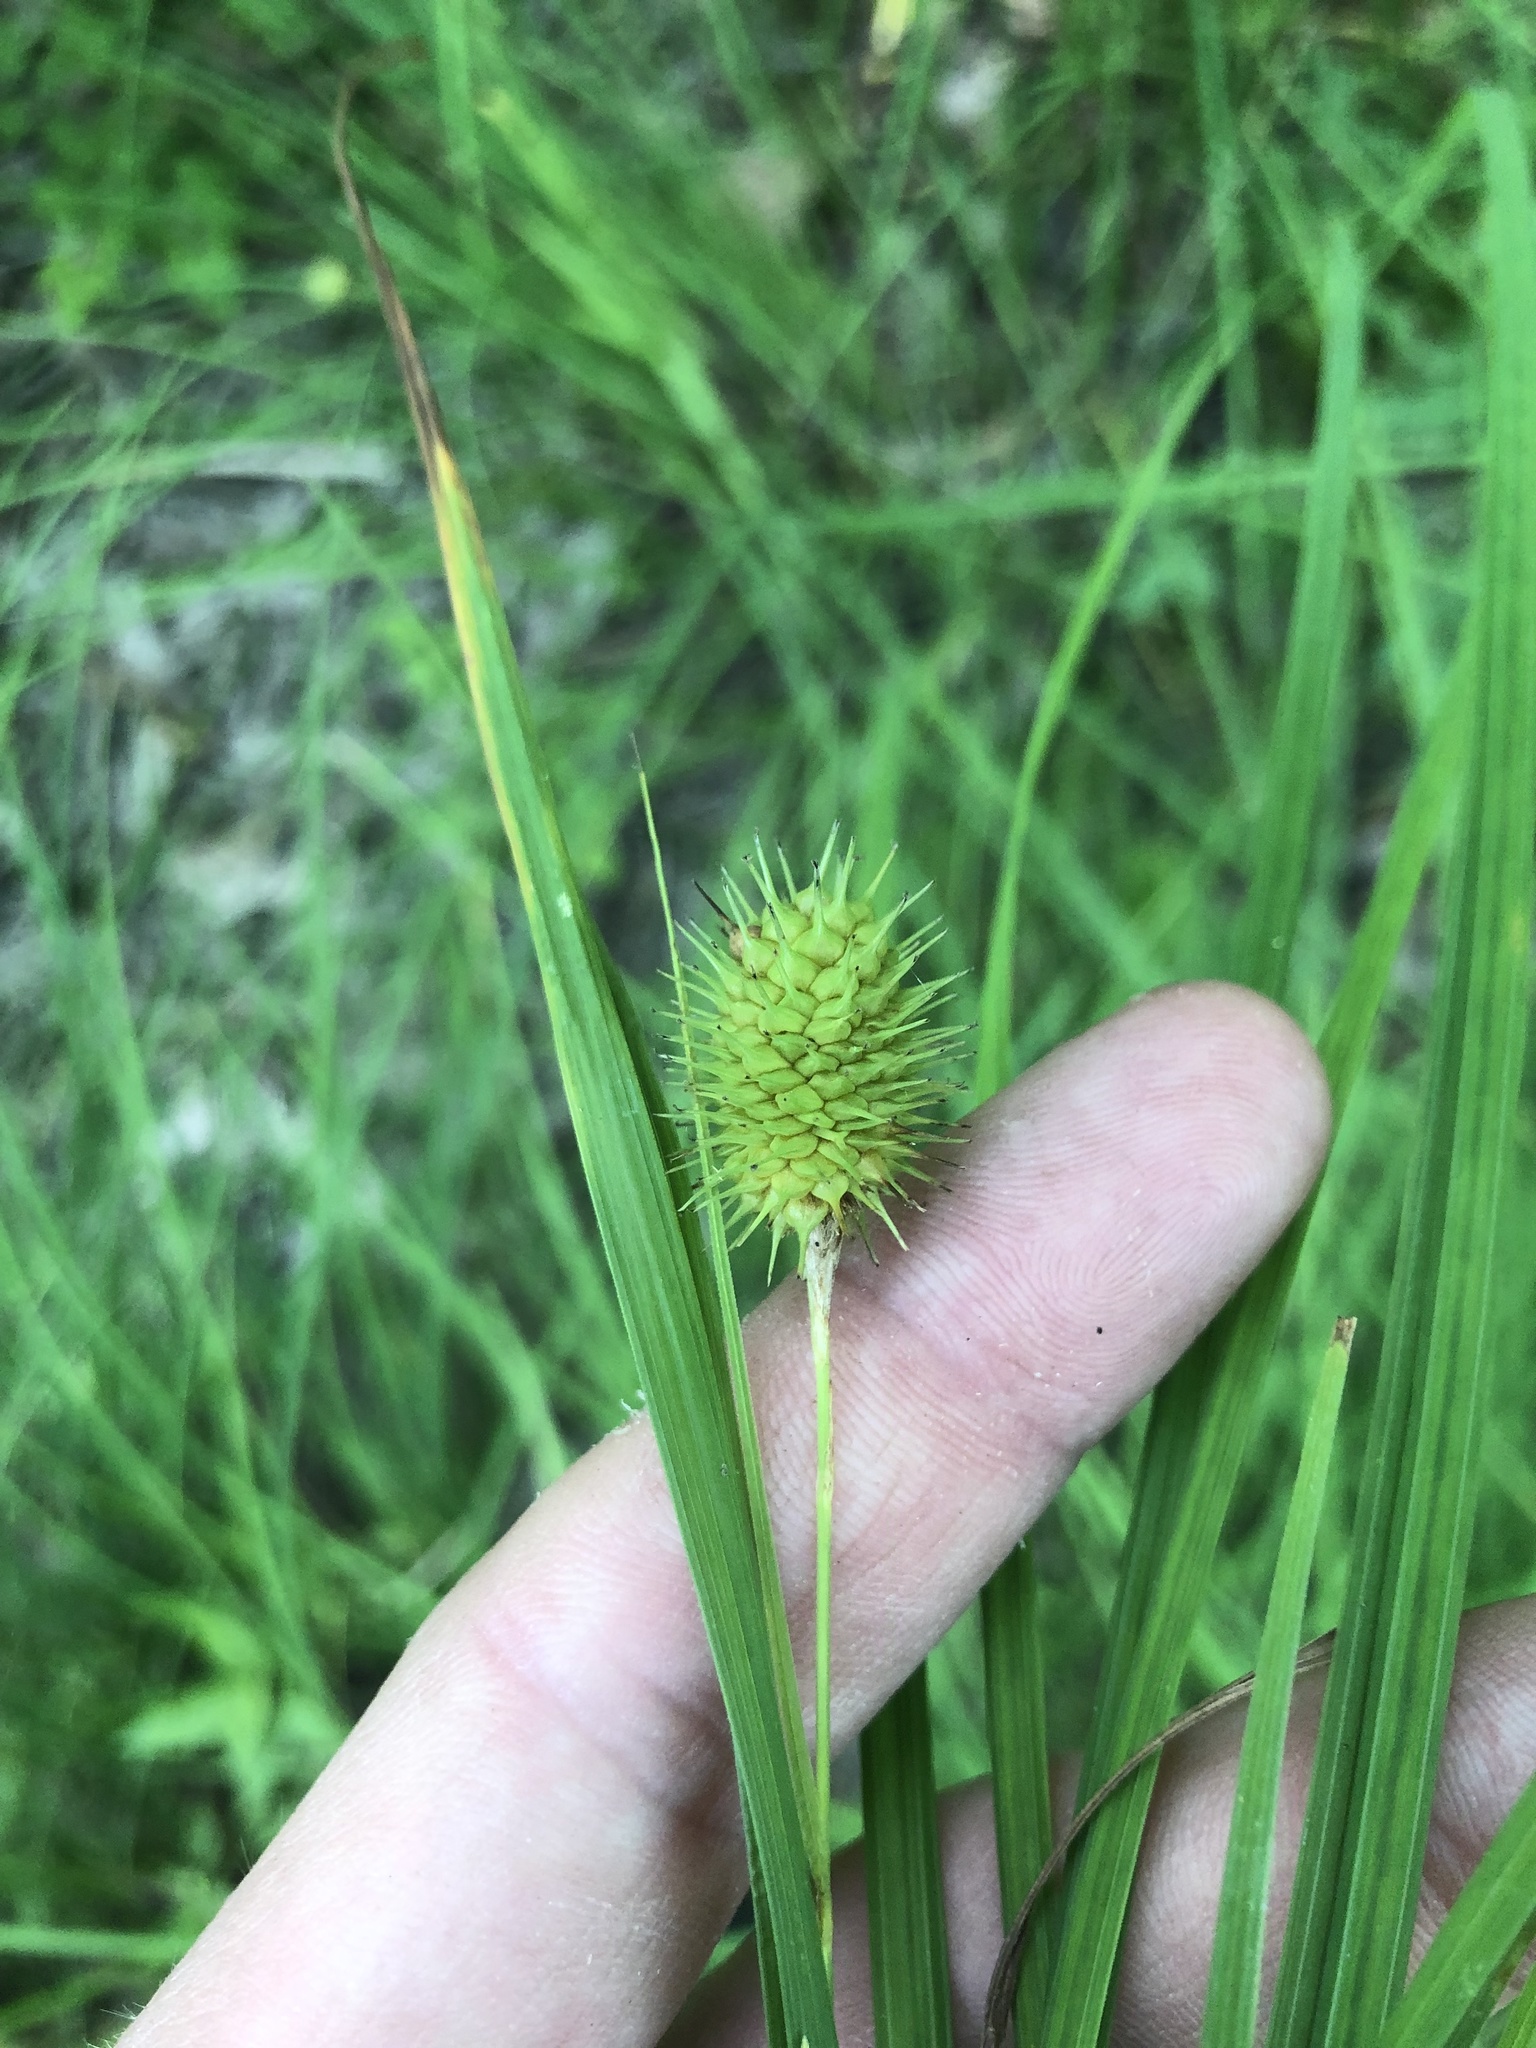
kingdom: Plantae
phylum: Tracheophyta
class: Liliopsida
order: Poales
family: Cyperaceae
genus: Carex
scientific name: Carex squarrosa
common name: Narrow-leaved cattail sedge
